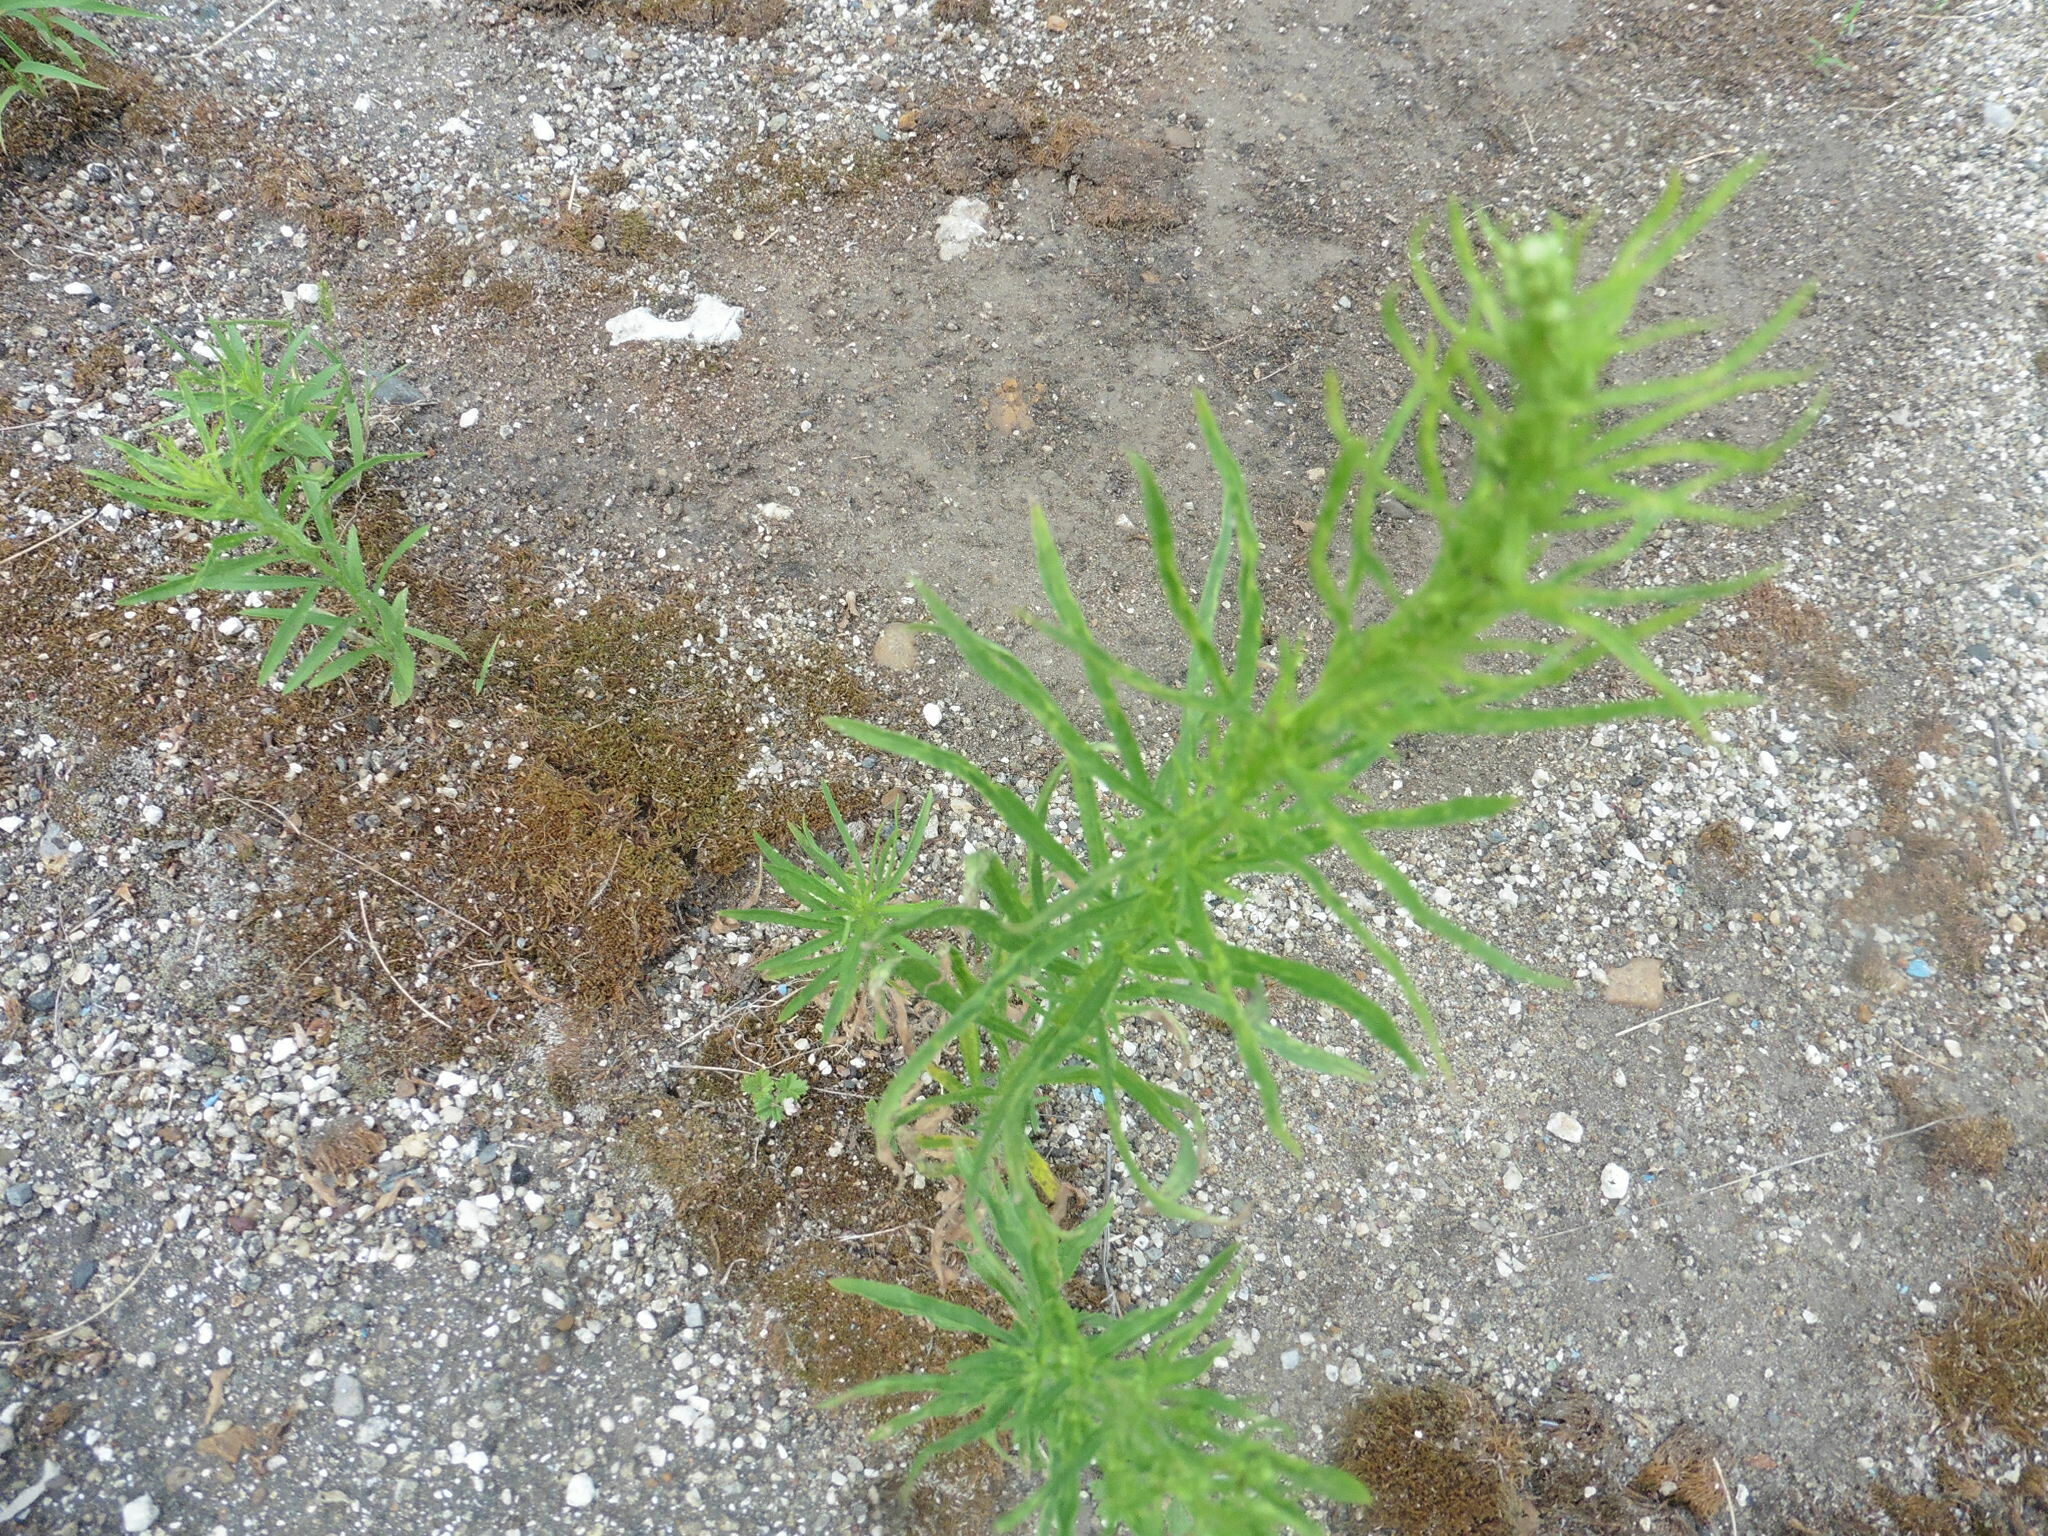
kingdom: Plantae
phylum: Tracheophyta
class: Magnoliopsida
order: Asterales
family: Asteraceae
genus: Erigeron
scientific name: Erigeron canadensis
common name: Canadian fleabane
